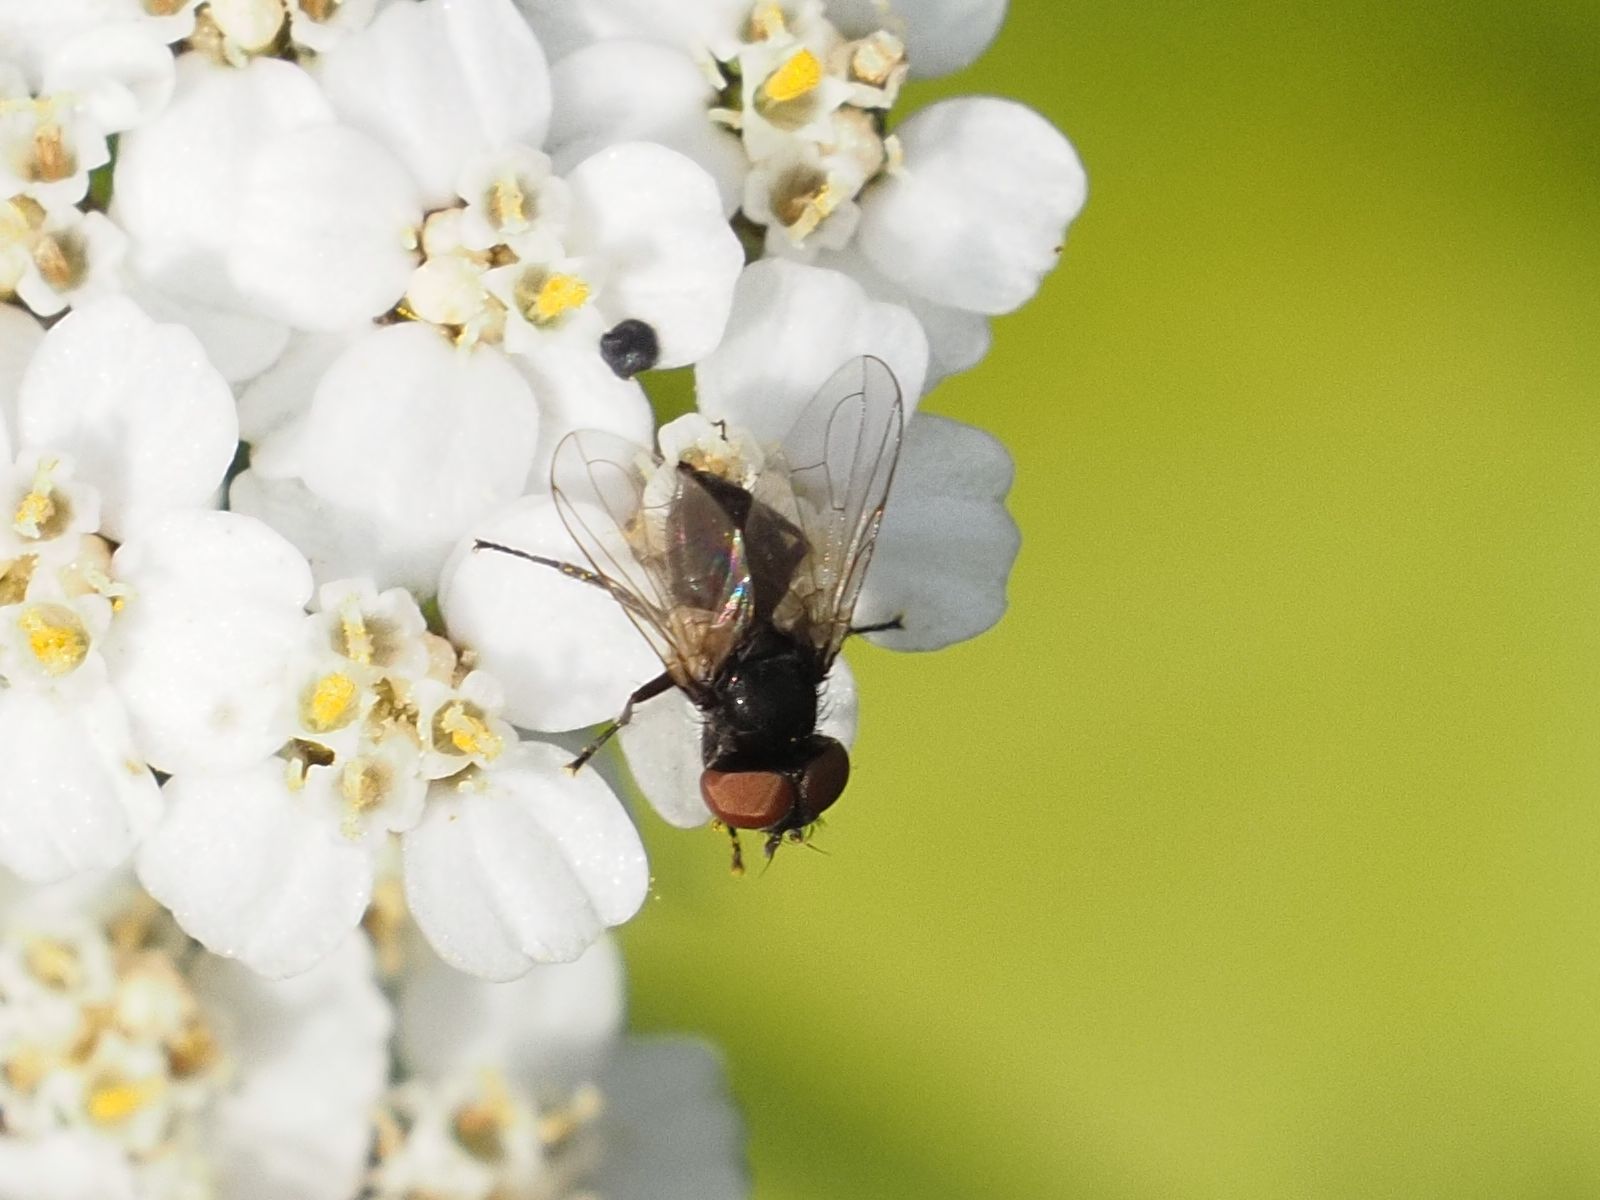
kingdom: Animalia
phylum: Arthropoda
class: Insecta
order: Diptera
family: Tachinidae
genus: Phasia
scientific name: Phasia barbifrons
